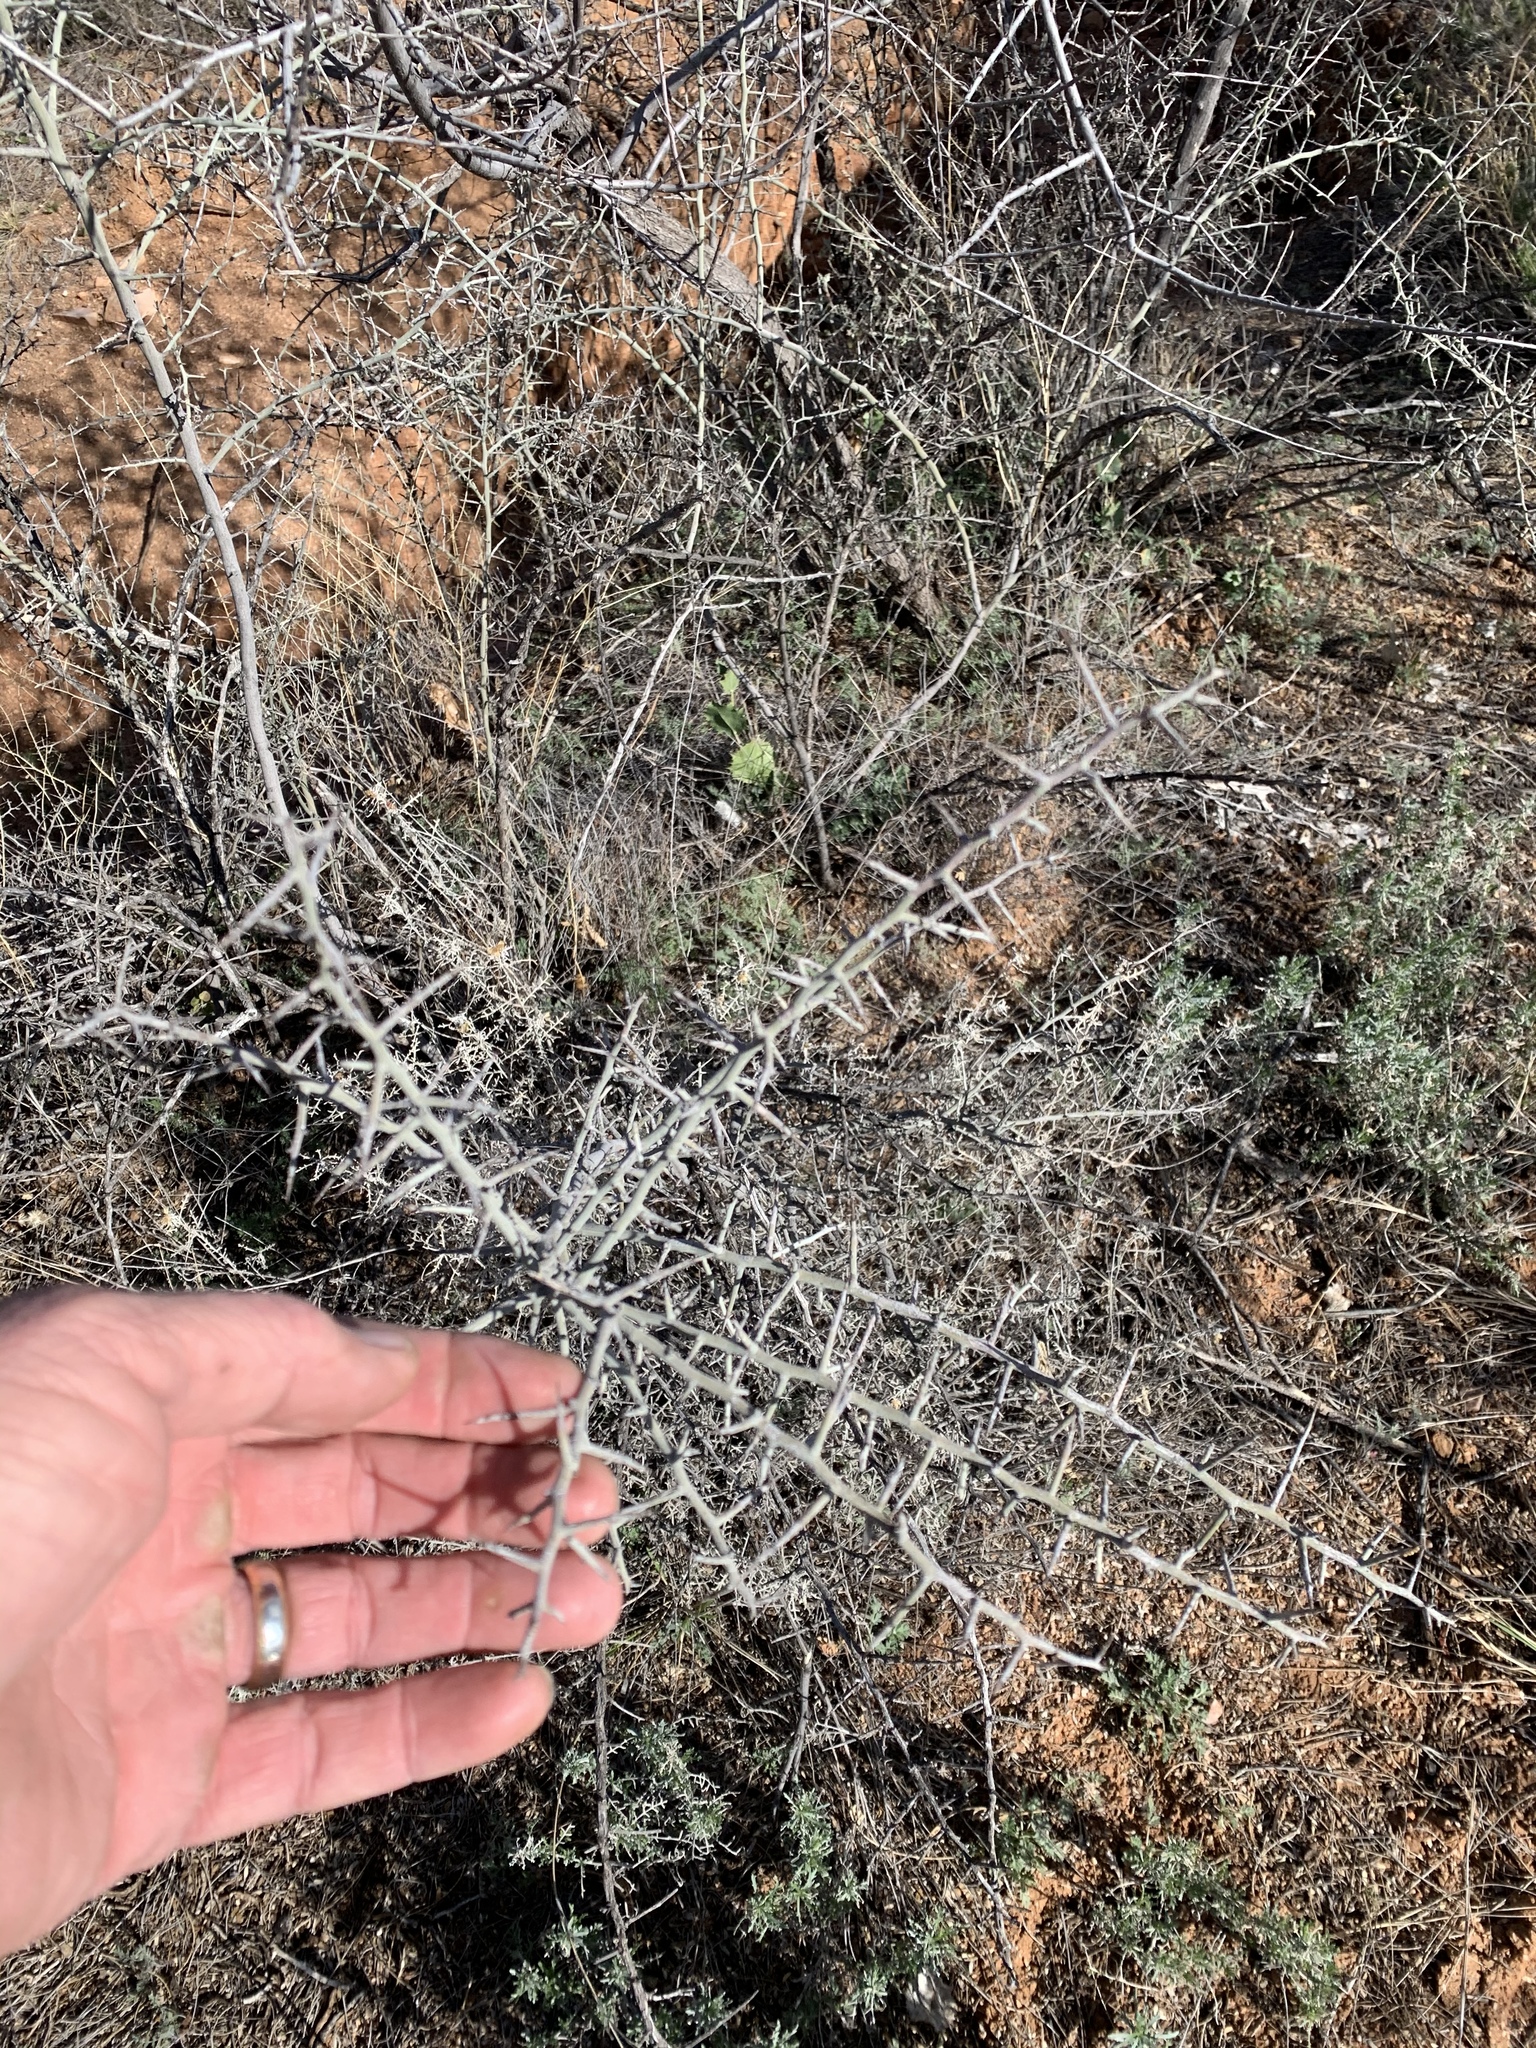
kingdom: Plantae
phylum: Tracheophyta
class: Magnoliopsida
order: Rosales
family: Rhamnaceae
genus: Sarcomphalus
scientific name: Sarcomphalus obtusifolius
